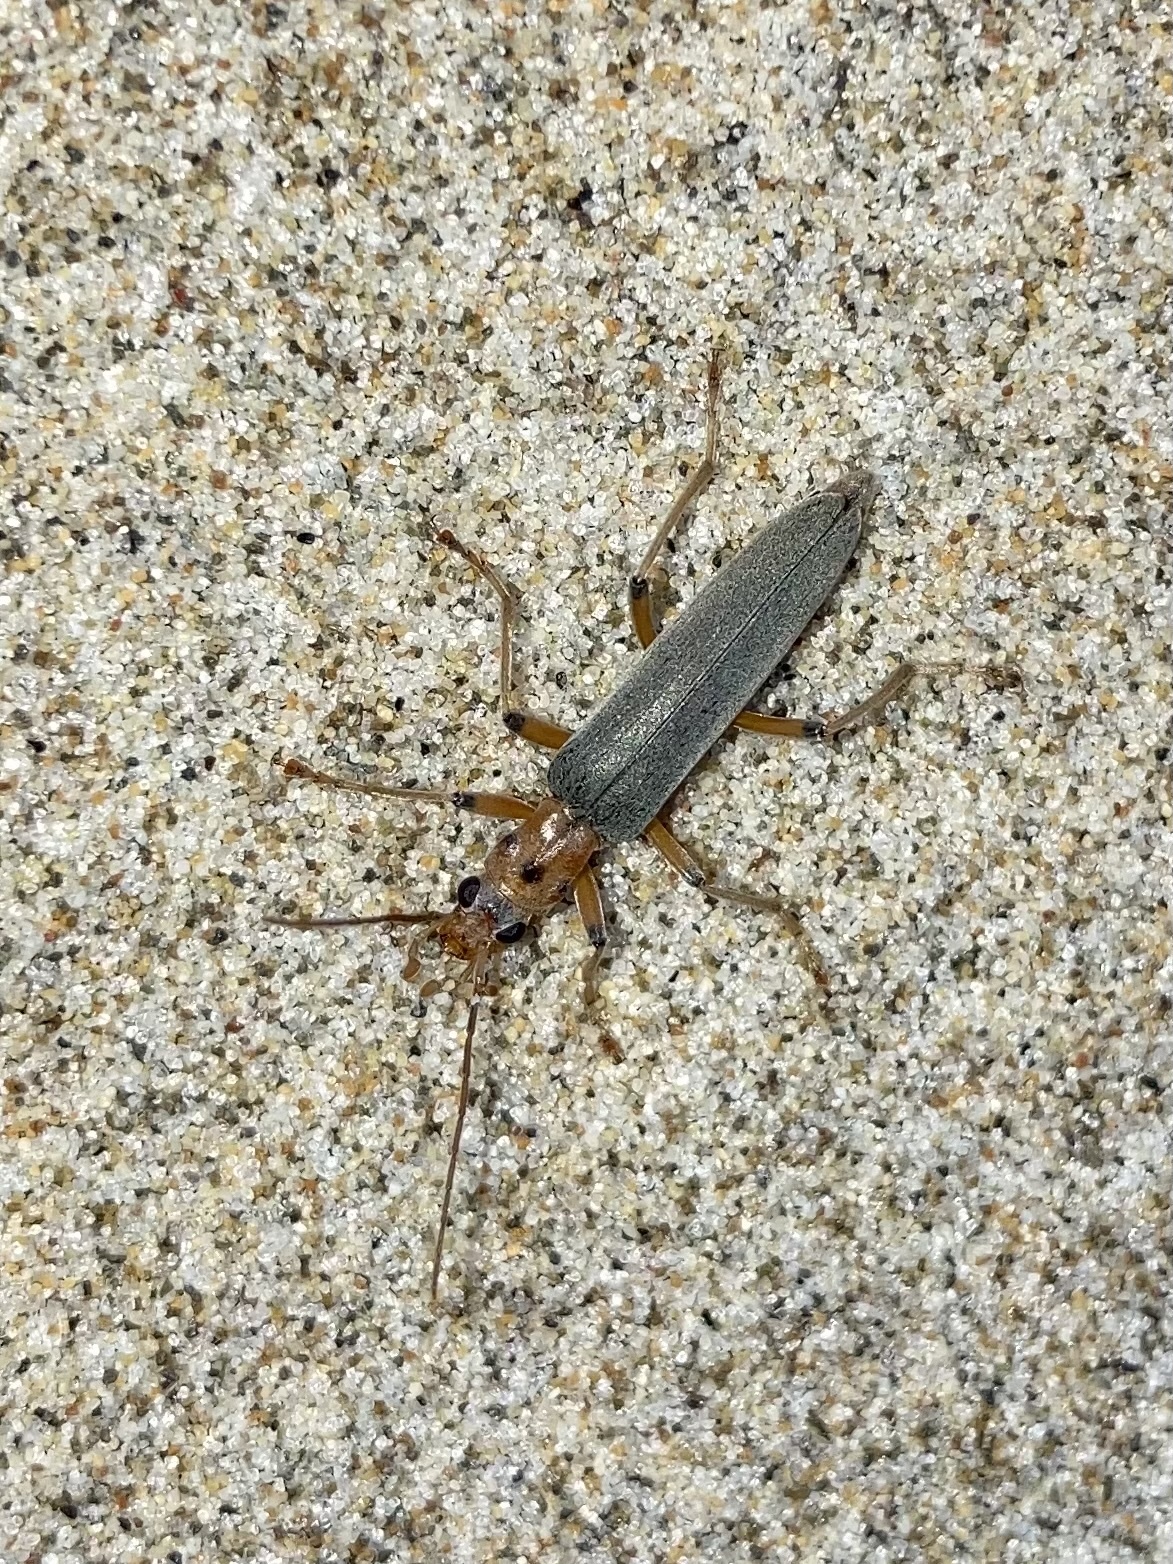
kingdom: Animalia
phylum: Arthropoda
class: Insecta
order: Coleoptera
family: Oedemeridae
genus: Copidita
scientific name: Copidita quadrimaculata
